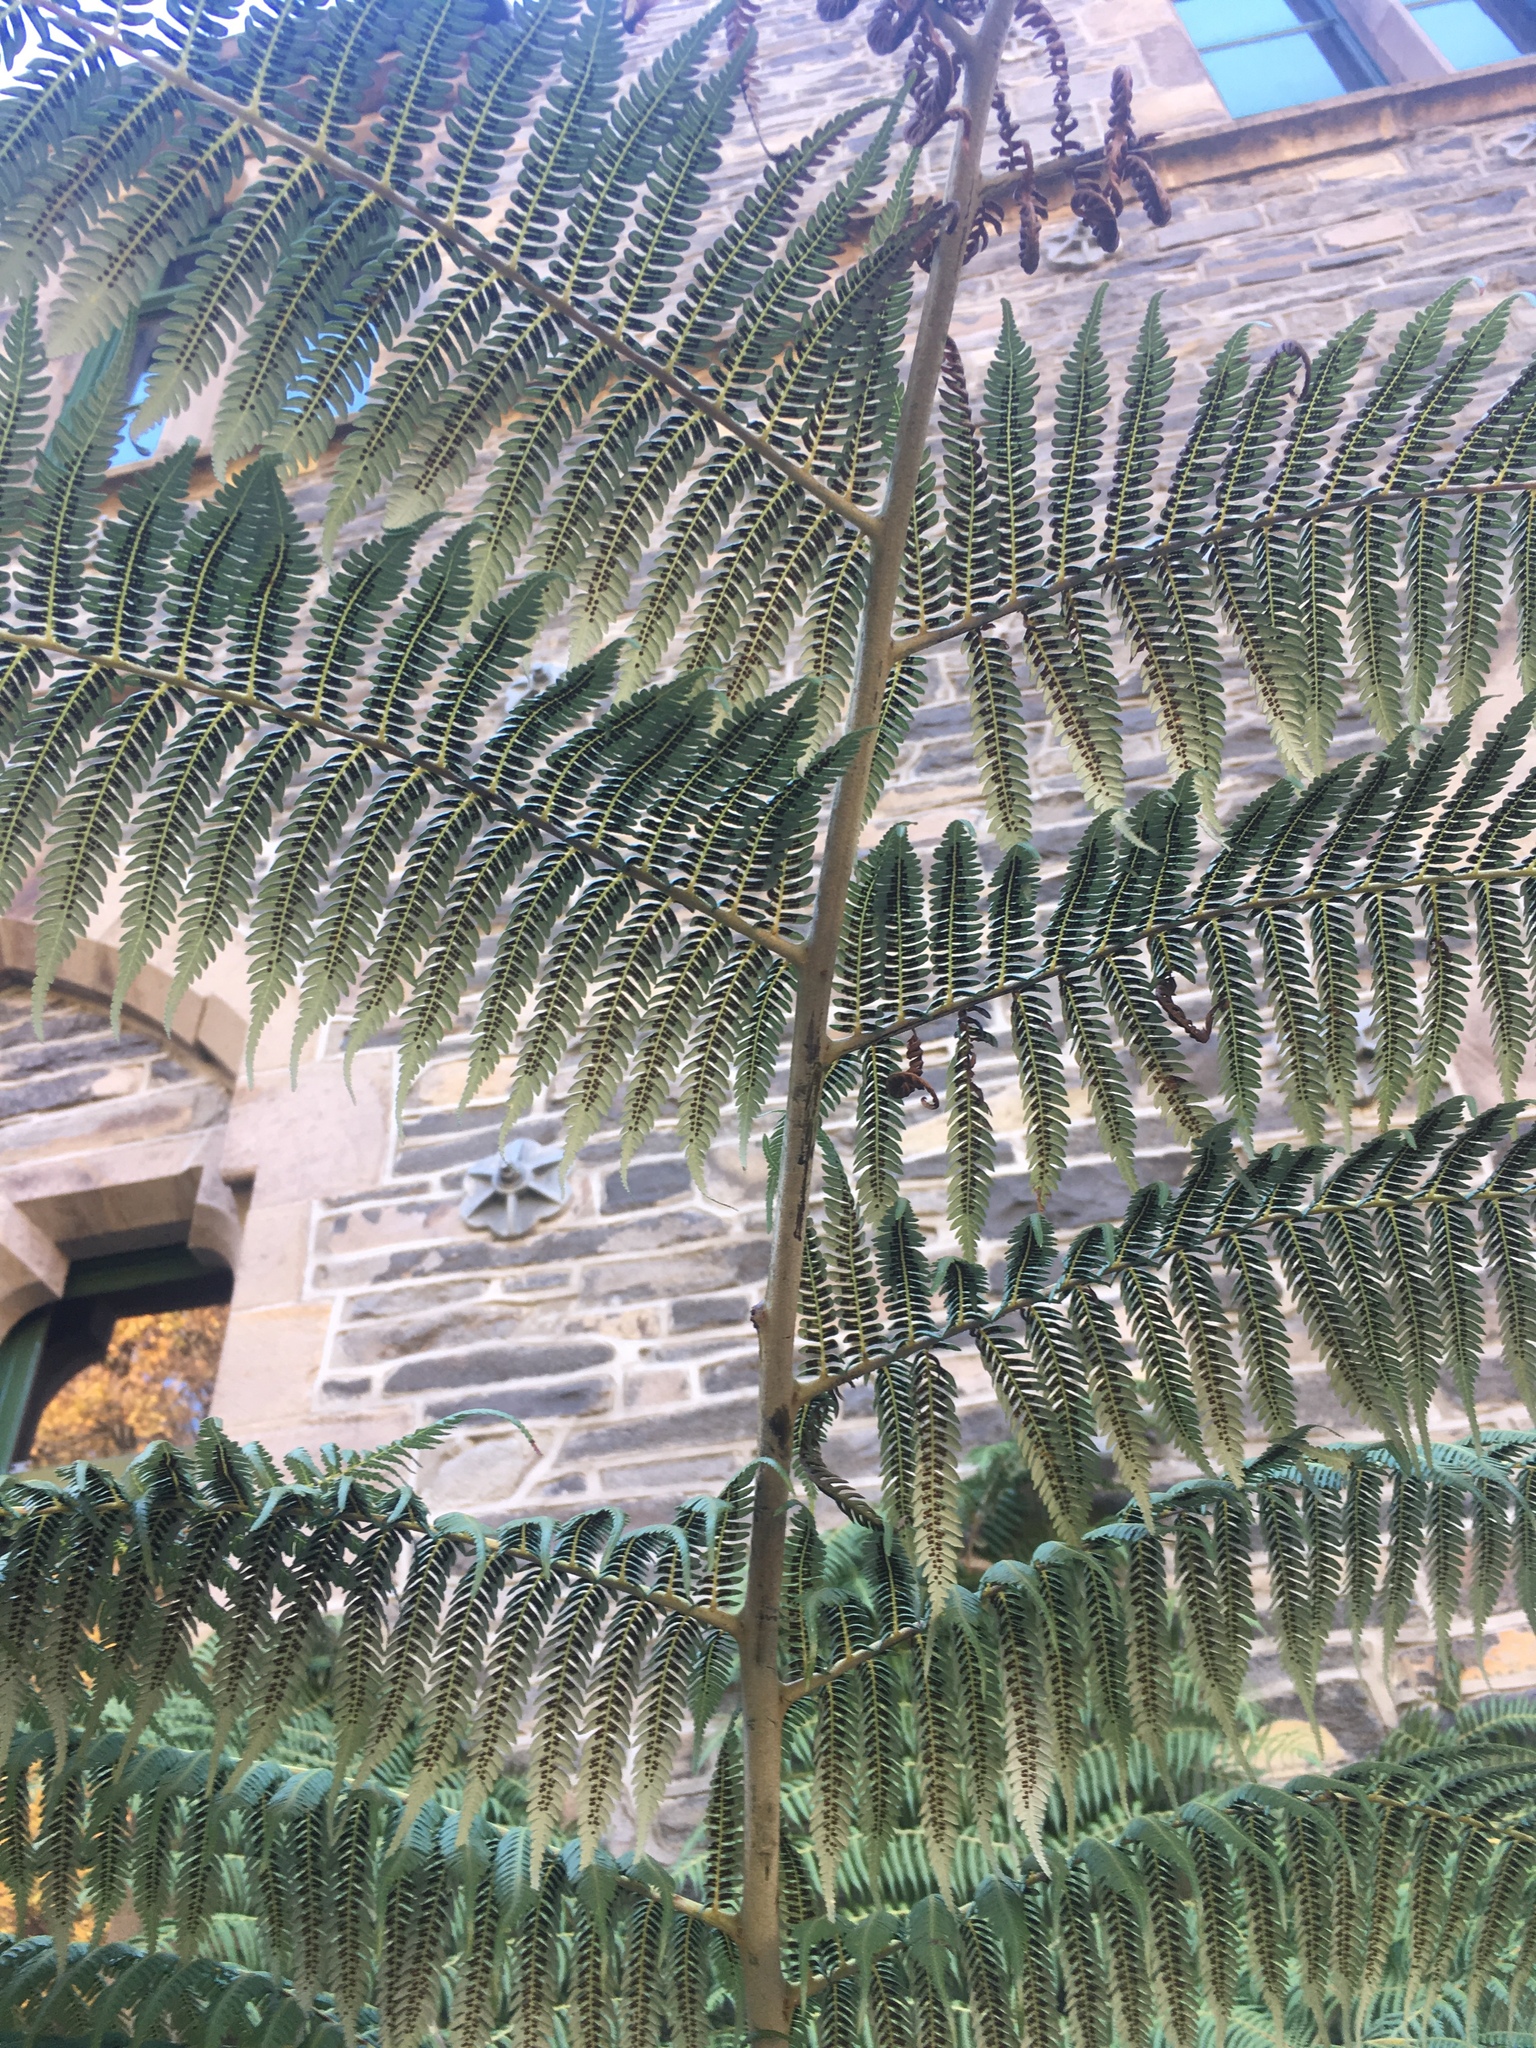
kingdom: Plantae
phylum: Tracheophyta
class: Polypodiopsida
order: Cyatheales
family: Cyatheaceae
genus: Alsophila
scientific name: Alsophila dealbata
